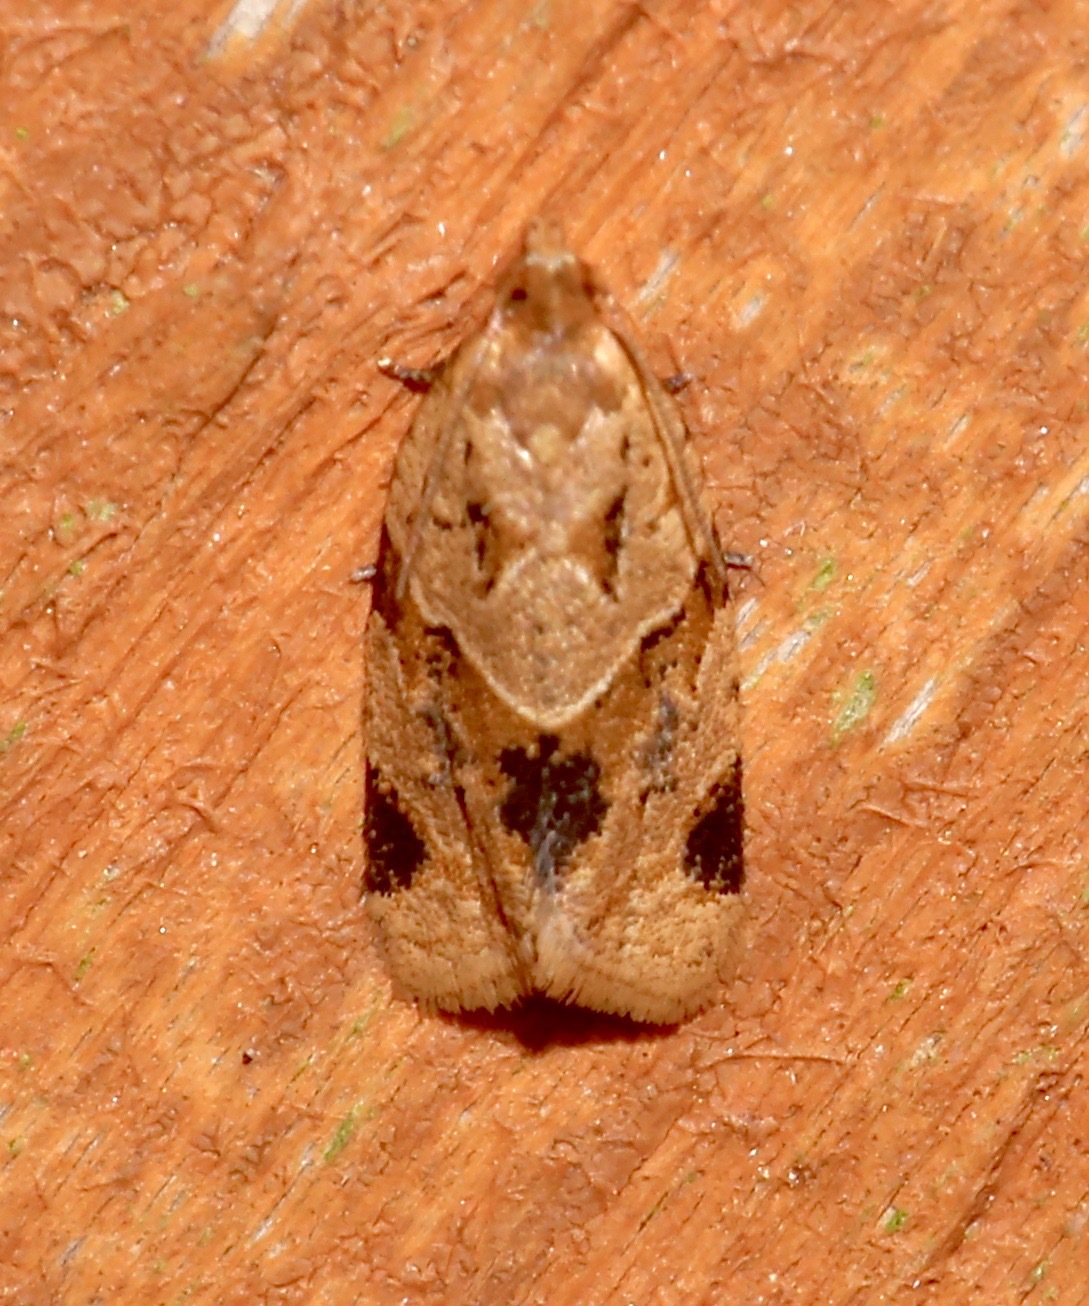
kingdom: Animalia
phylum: Arthropoda
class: Insecta
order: Lepidoptera
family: Tortricidae
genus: Clepsis
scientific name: Clepsis peritana
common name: Garden tortrix
